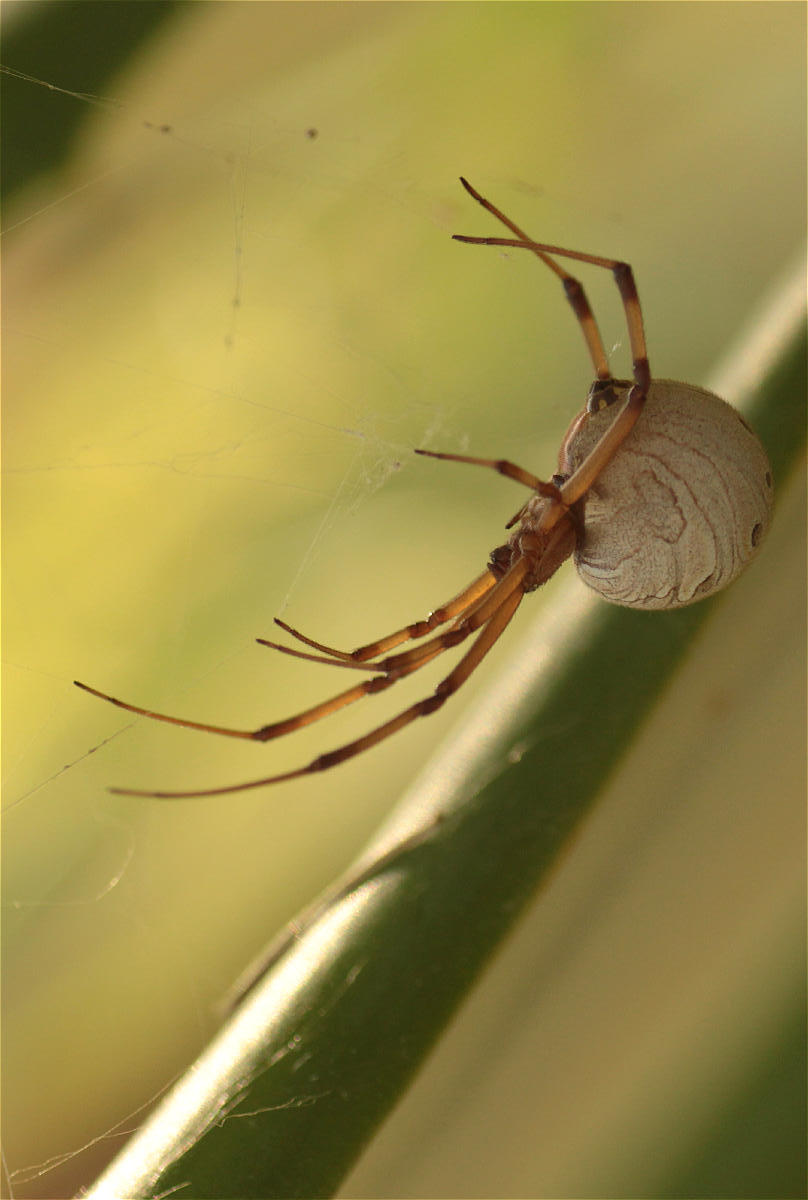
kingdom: Animalia
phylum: Arthropoda
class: Arachnida
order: Araneae
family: Theridiidae
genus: Latrodectus
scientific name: Latrodectus geometricus
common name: Brown widow spider
